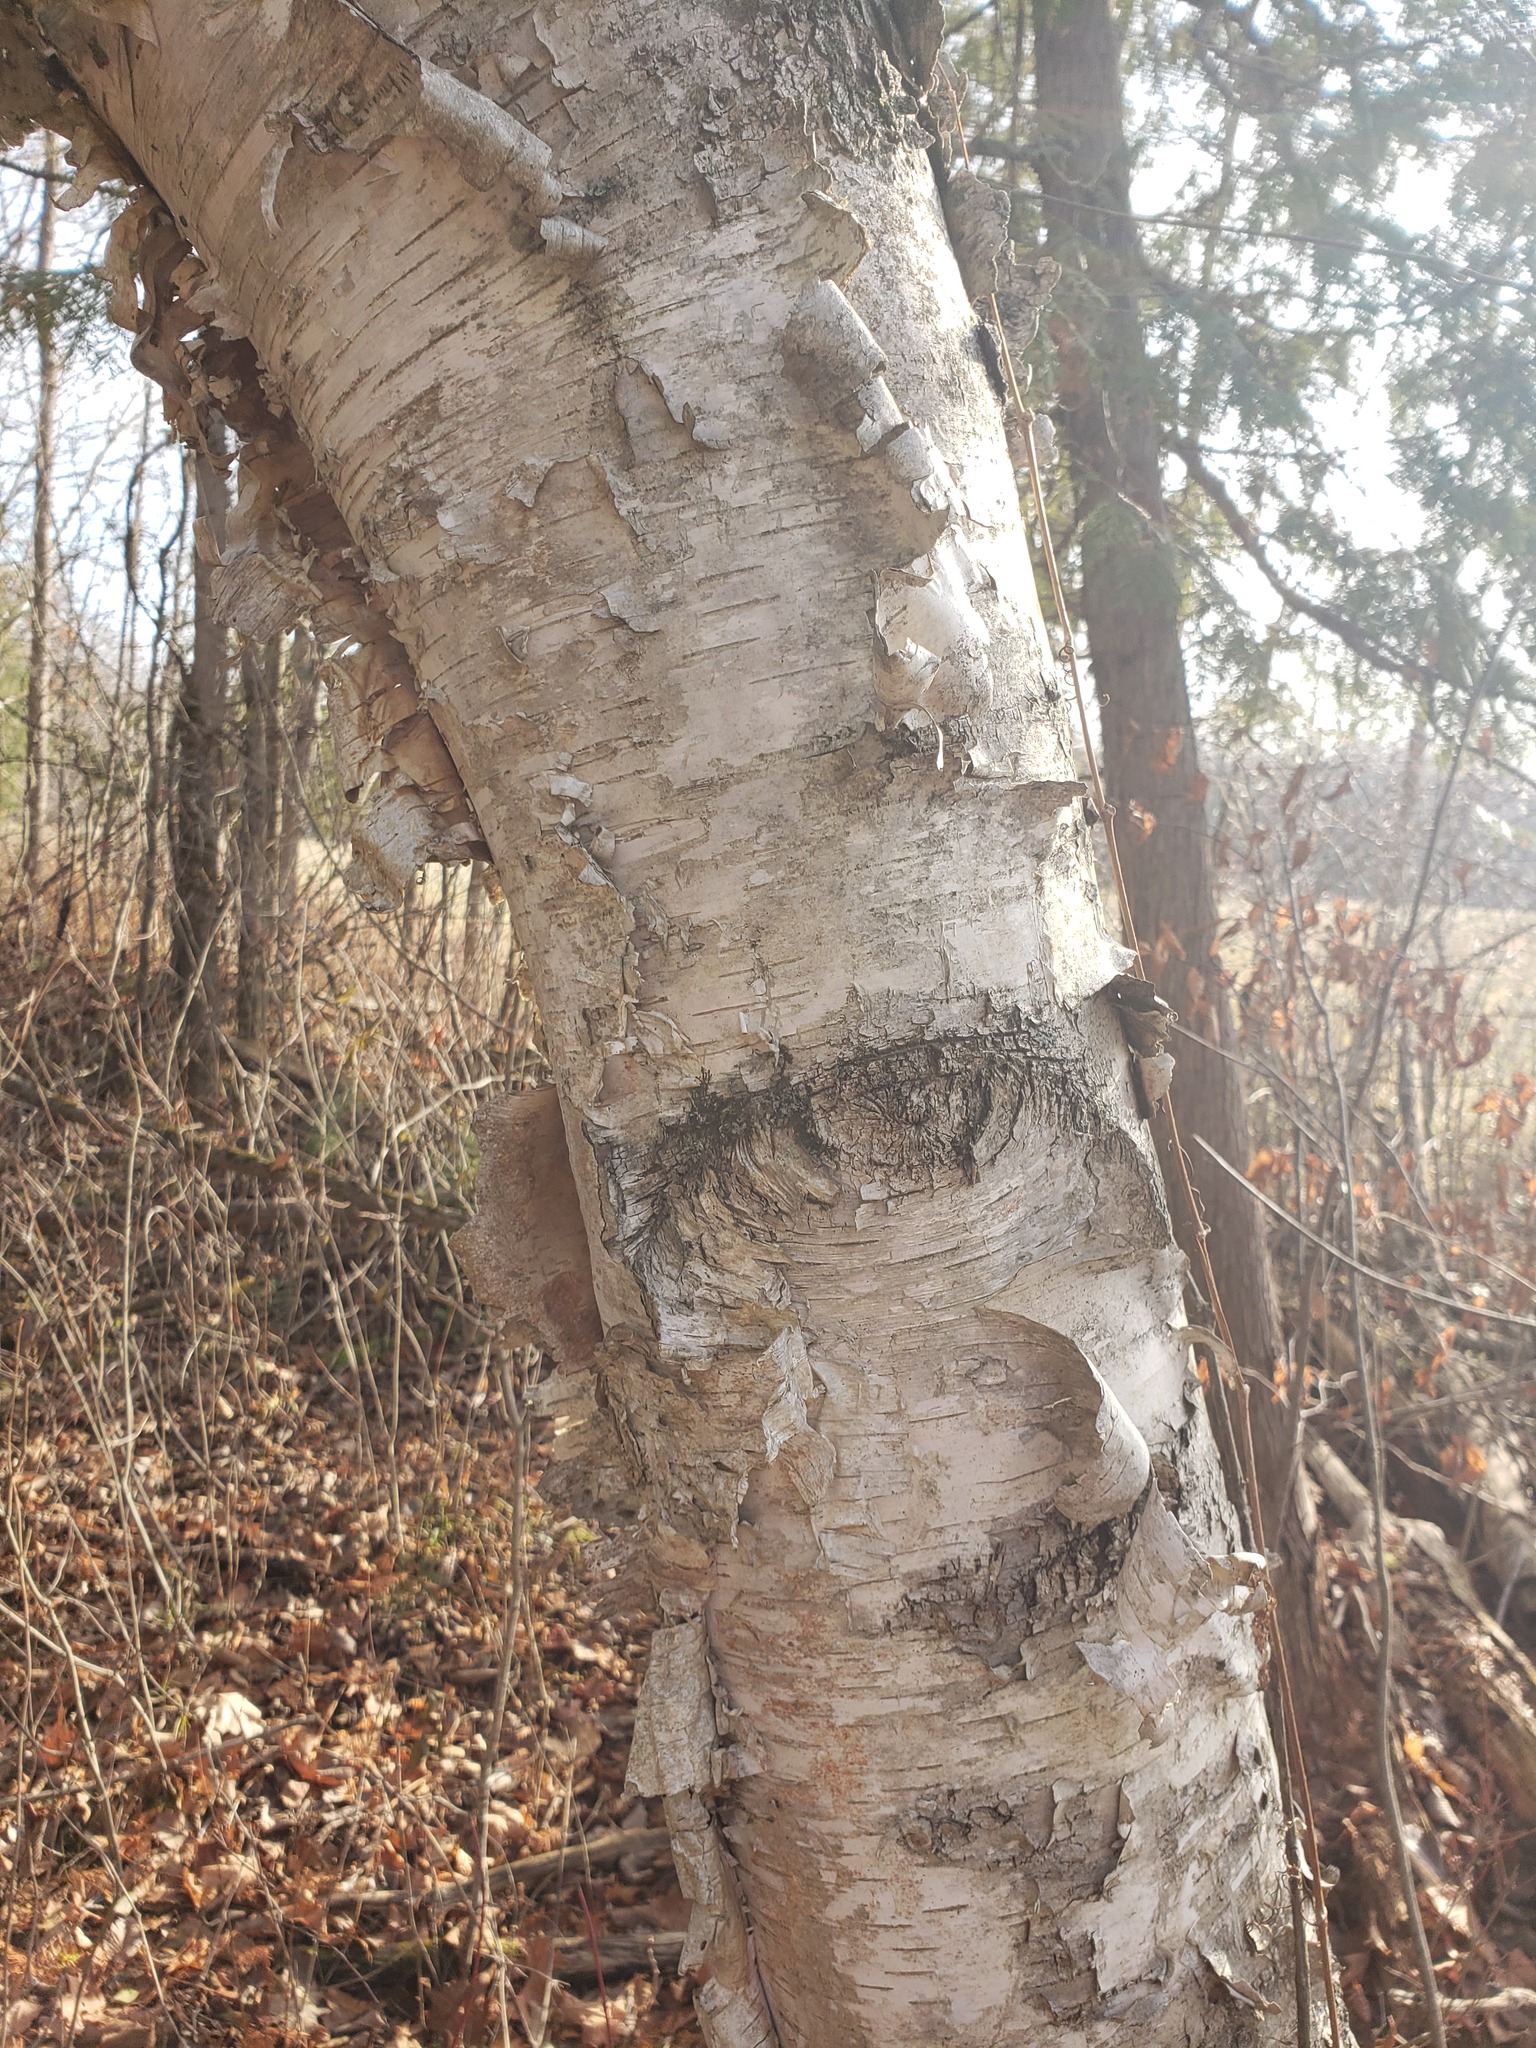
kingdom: Plantae
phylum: Tracheophyta
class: Magnoliopsida
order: Fagales
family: Betulaceae
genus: Betula
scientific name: Betula papyrifera
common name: Paper birch
